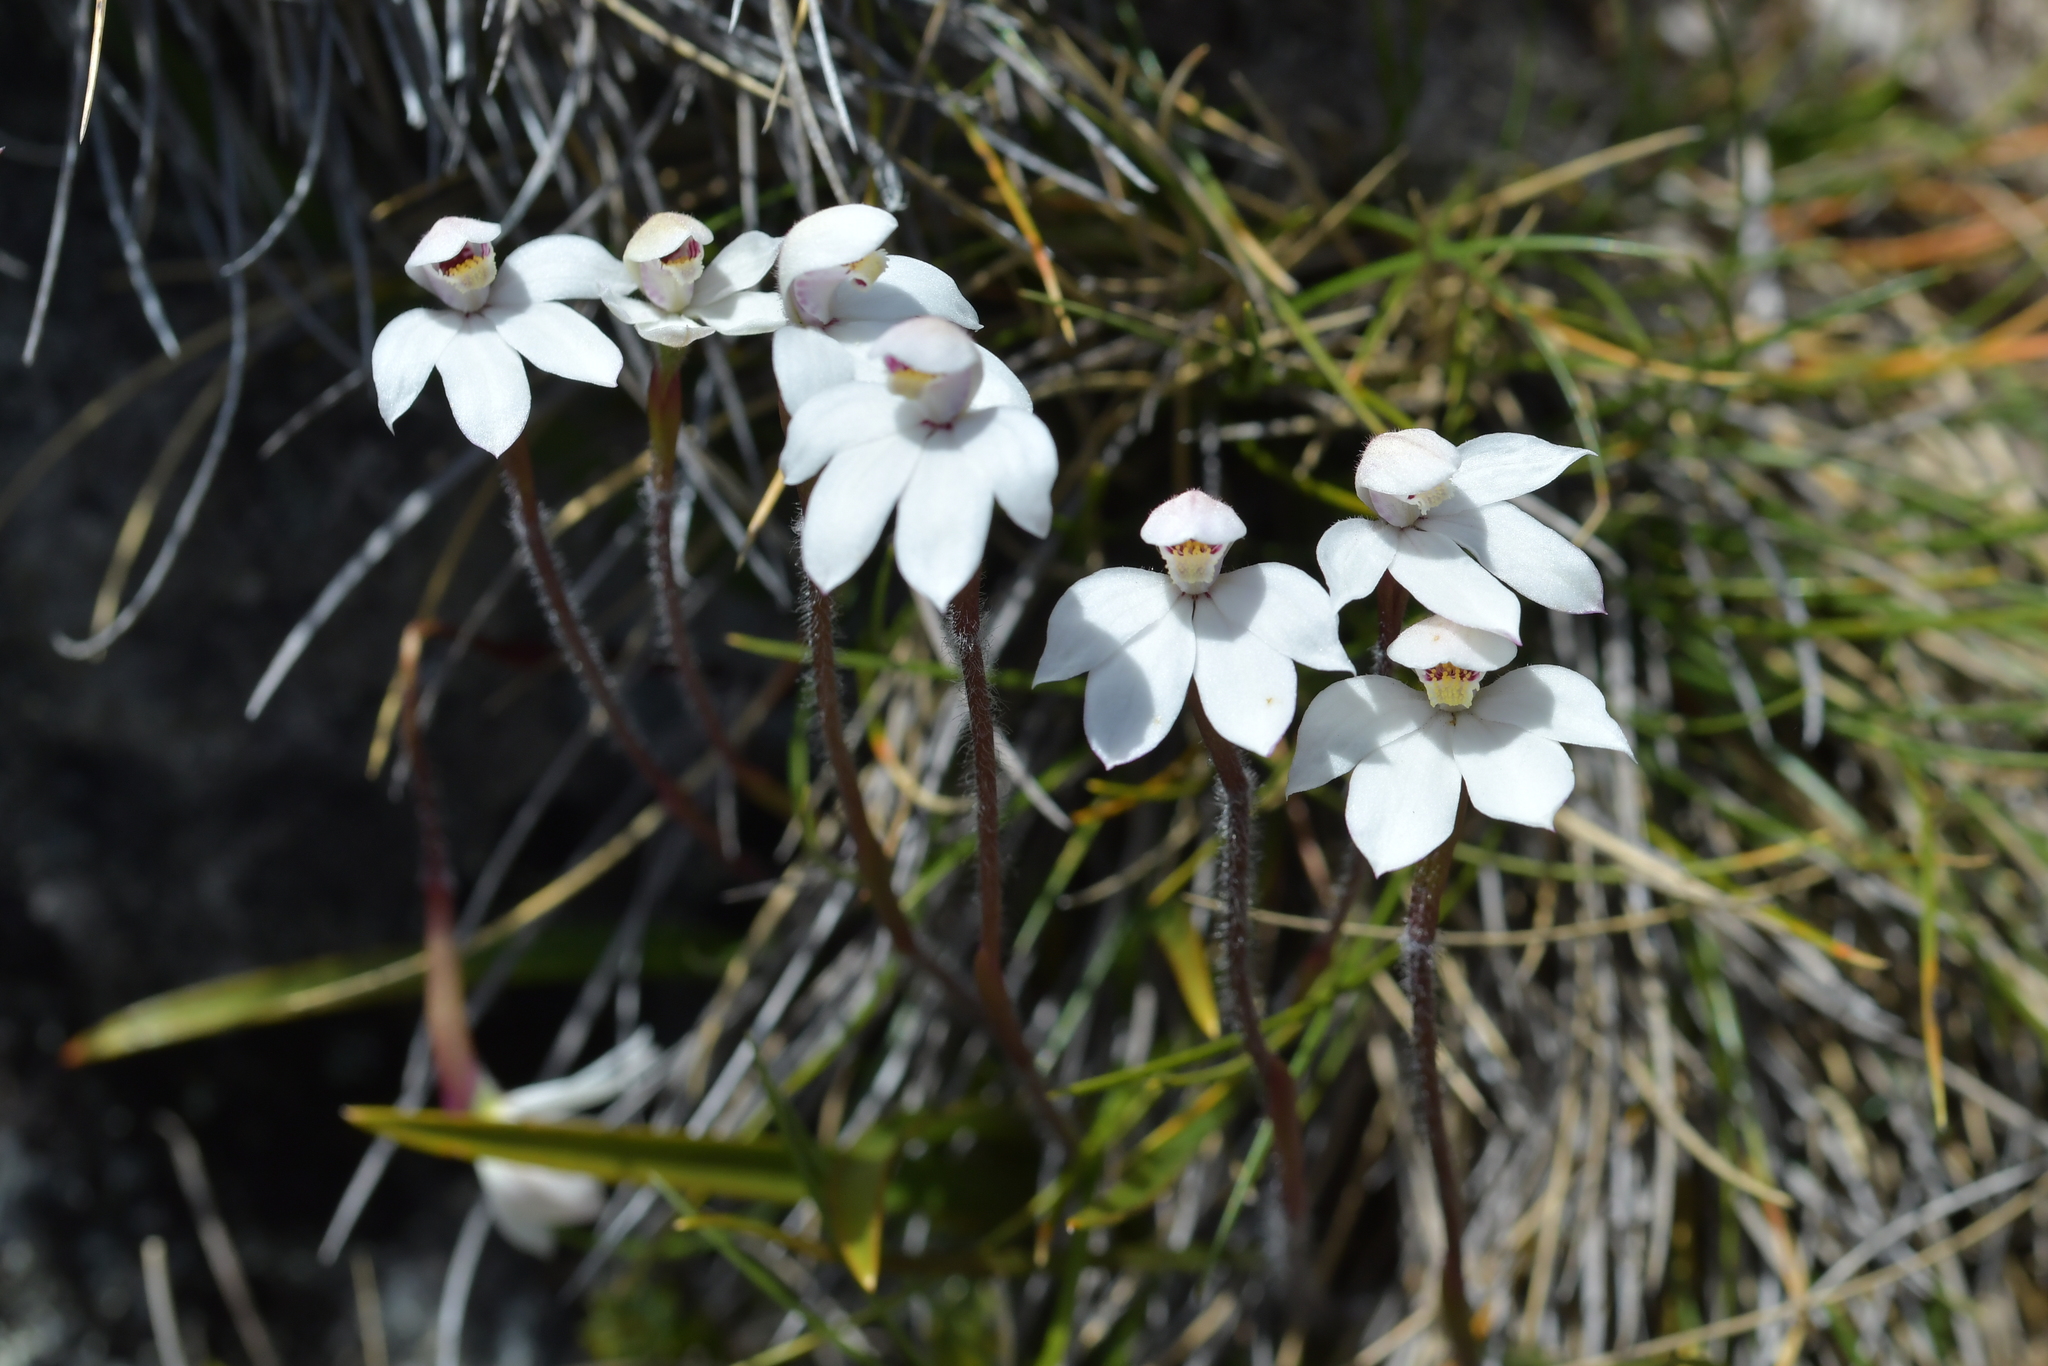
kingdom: Plantae
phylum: Tracheophyta
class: Liliopsida
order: Asparagales
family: Orchidaceae
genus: Caladenia
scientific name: Caladenia lyallii
